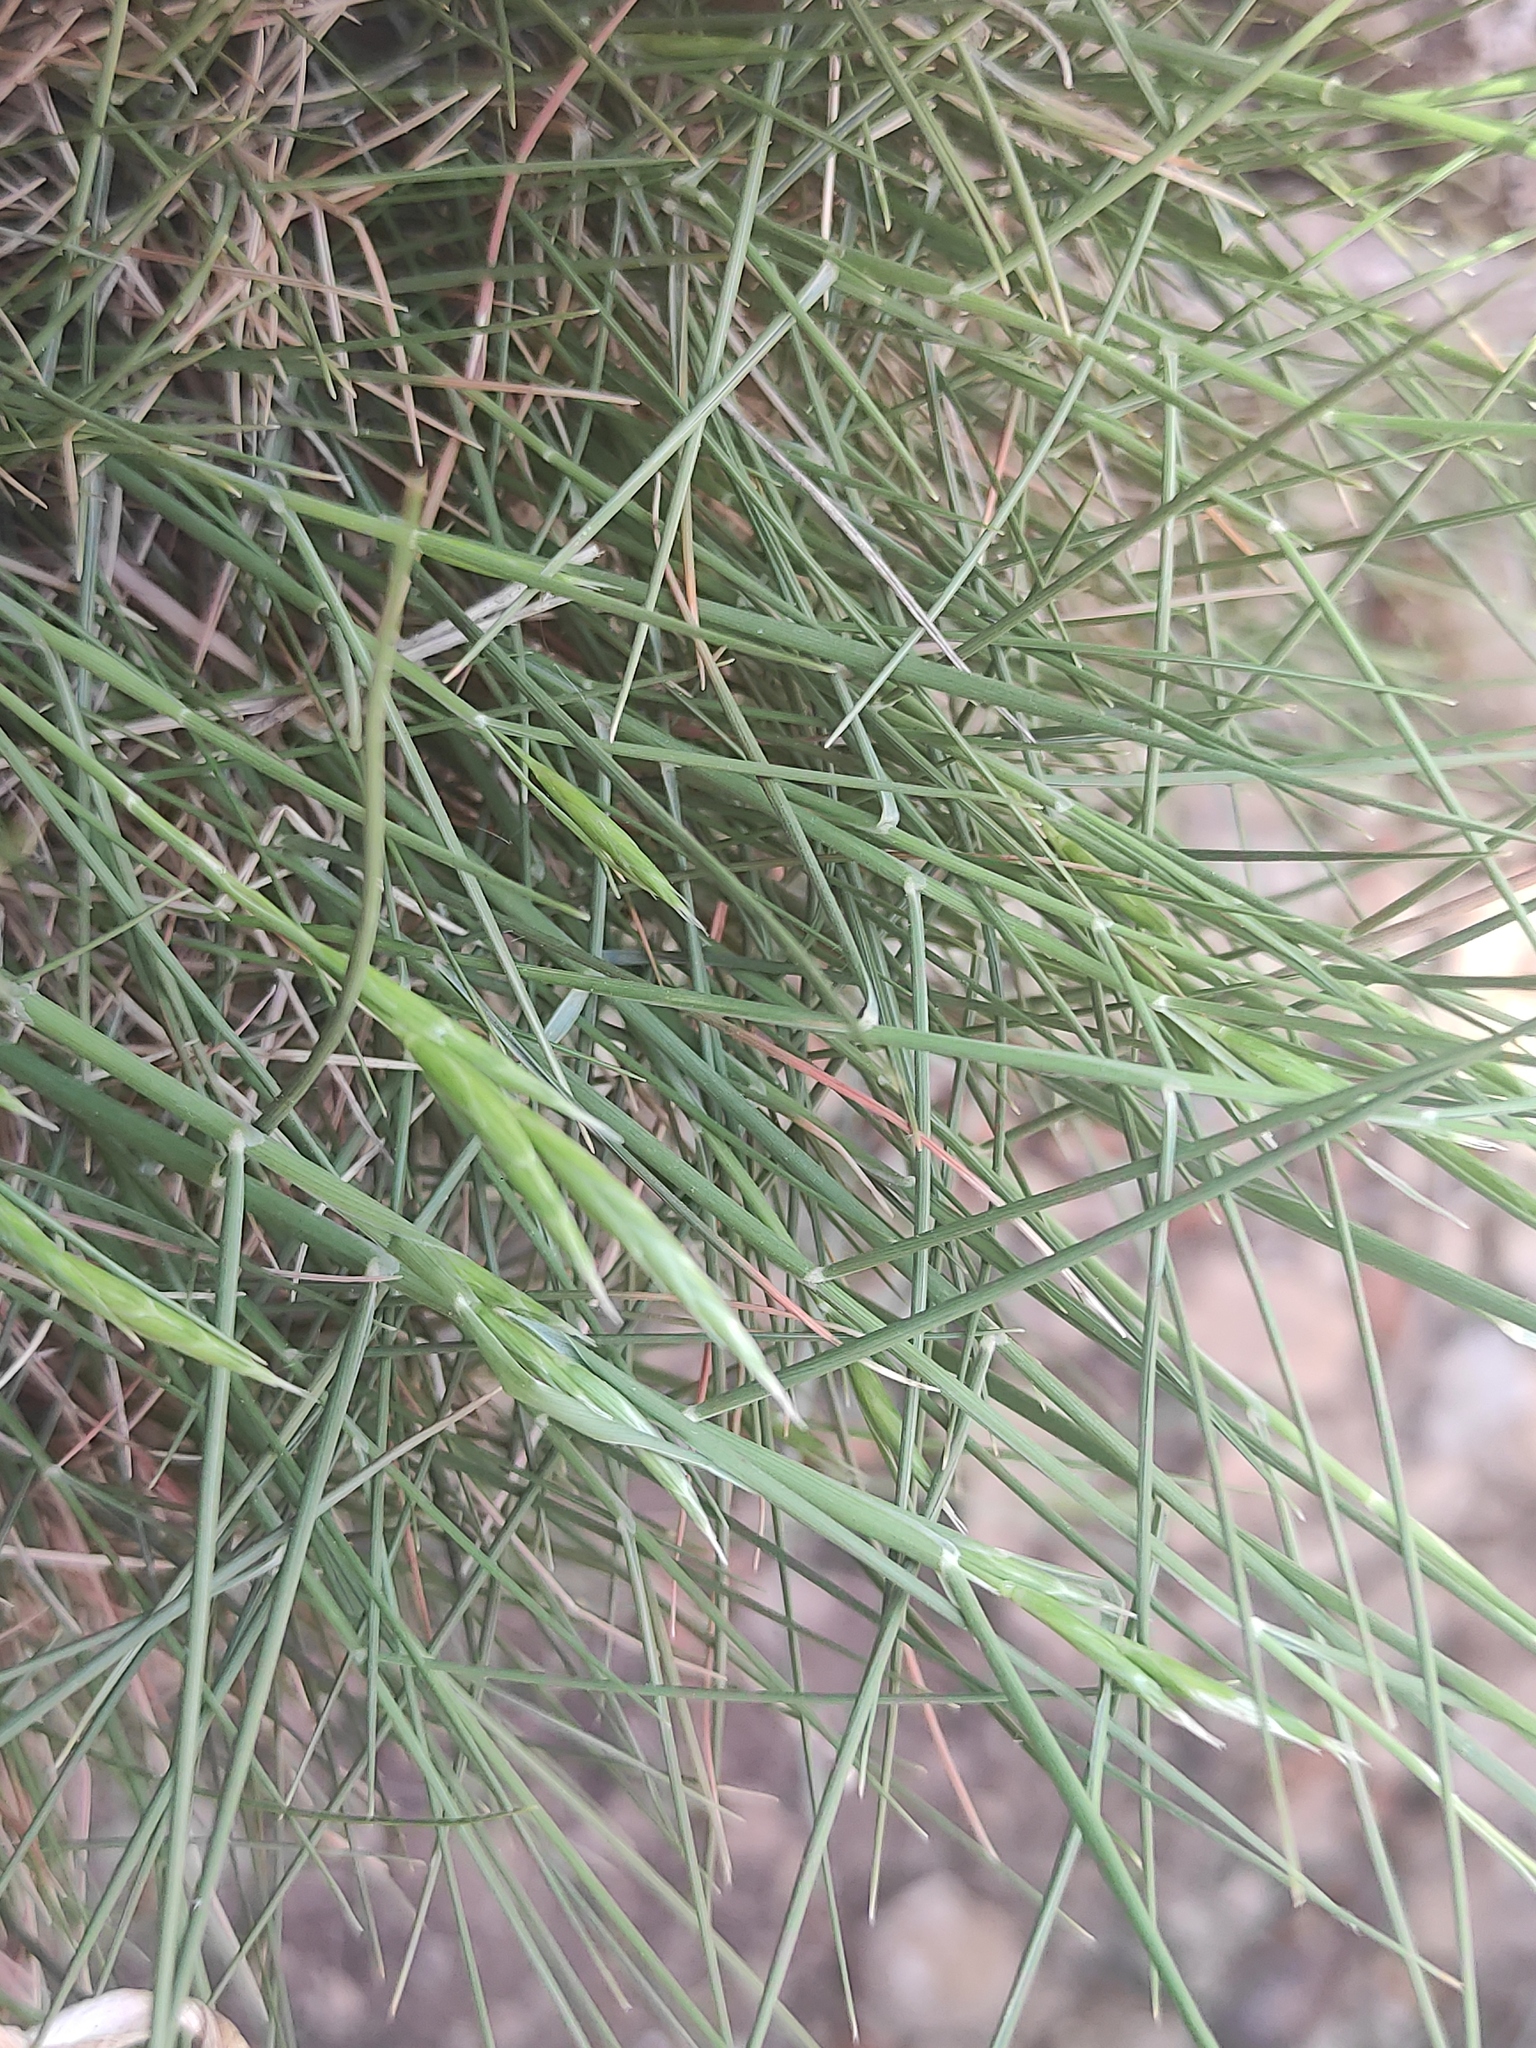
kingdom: Plantae
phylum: Tracheophyta
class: Liliopsida
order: Poales
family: Poaceae
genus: Brachypodium
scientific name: Brachypodium retusum
